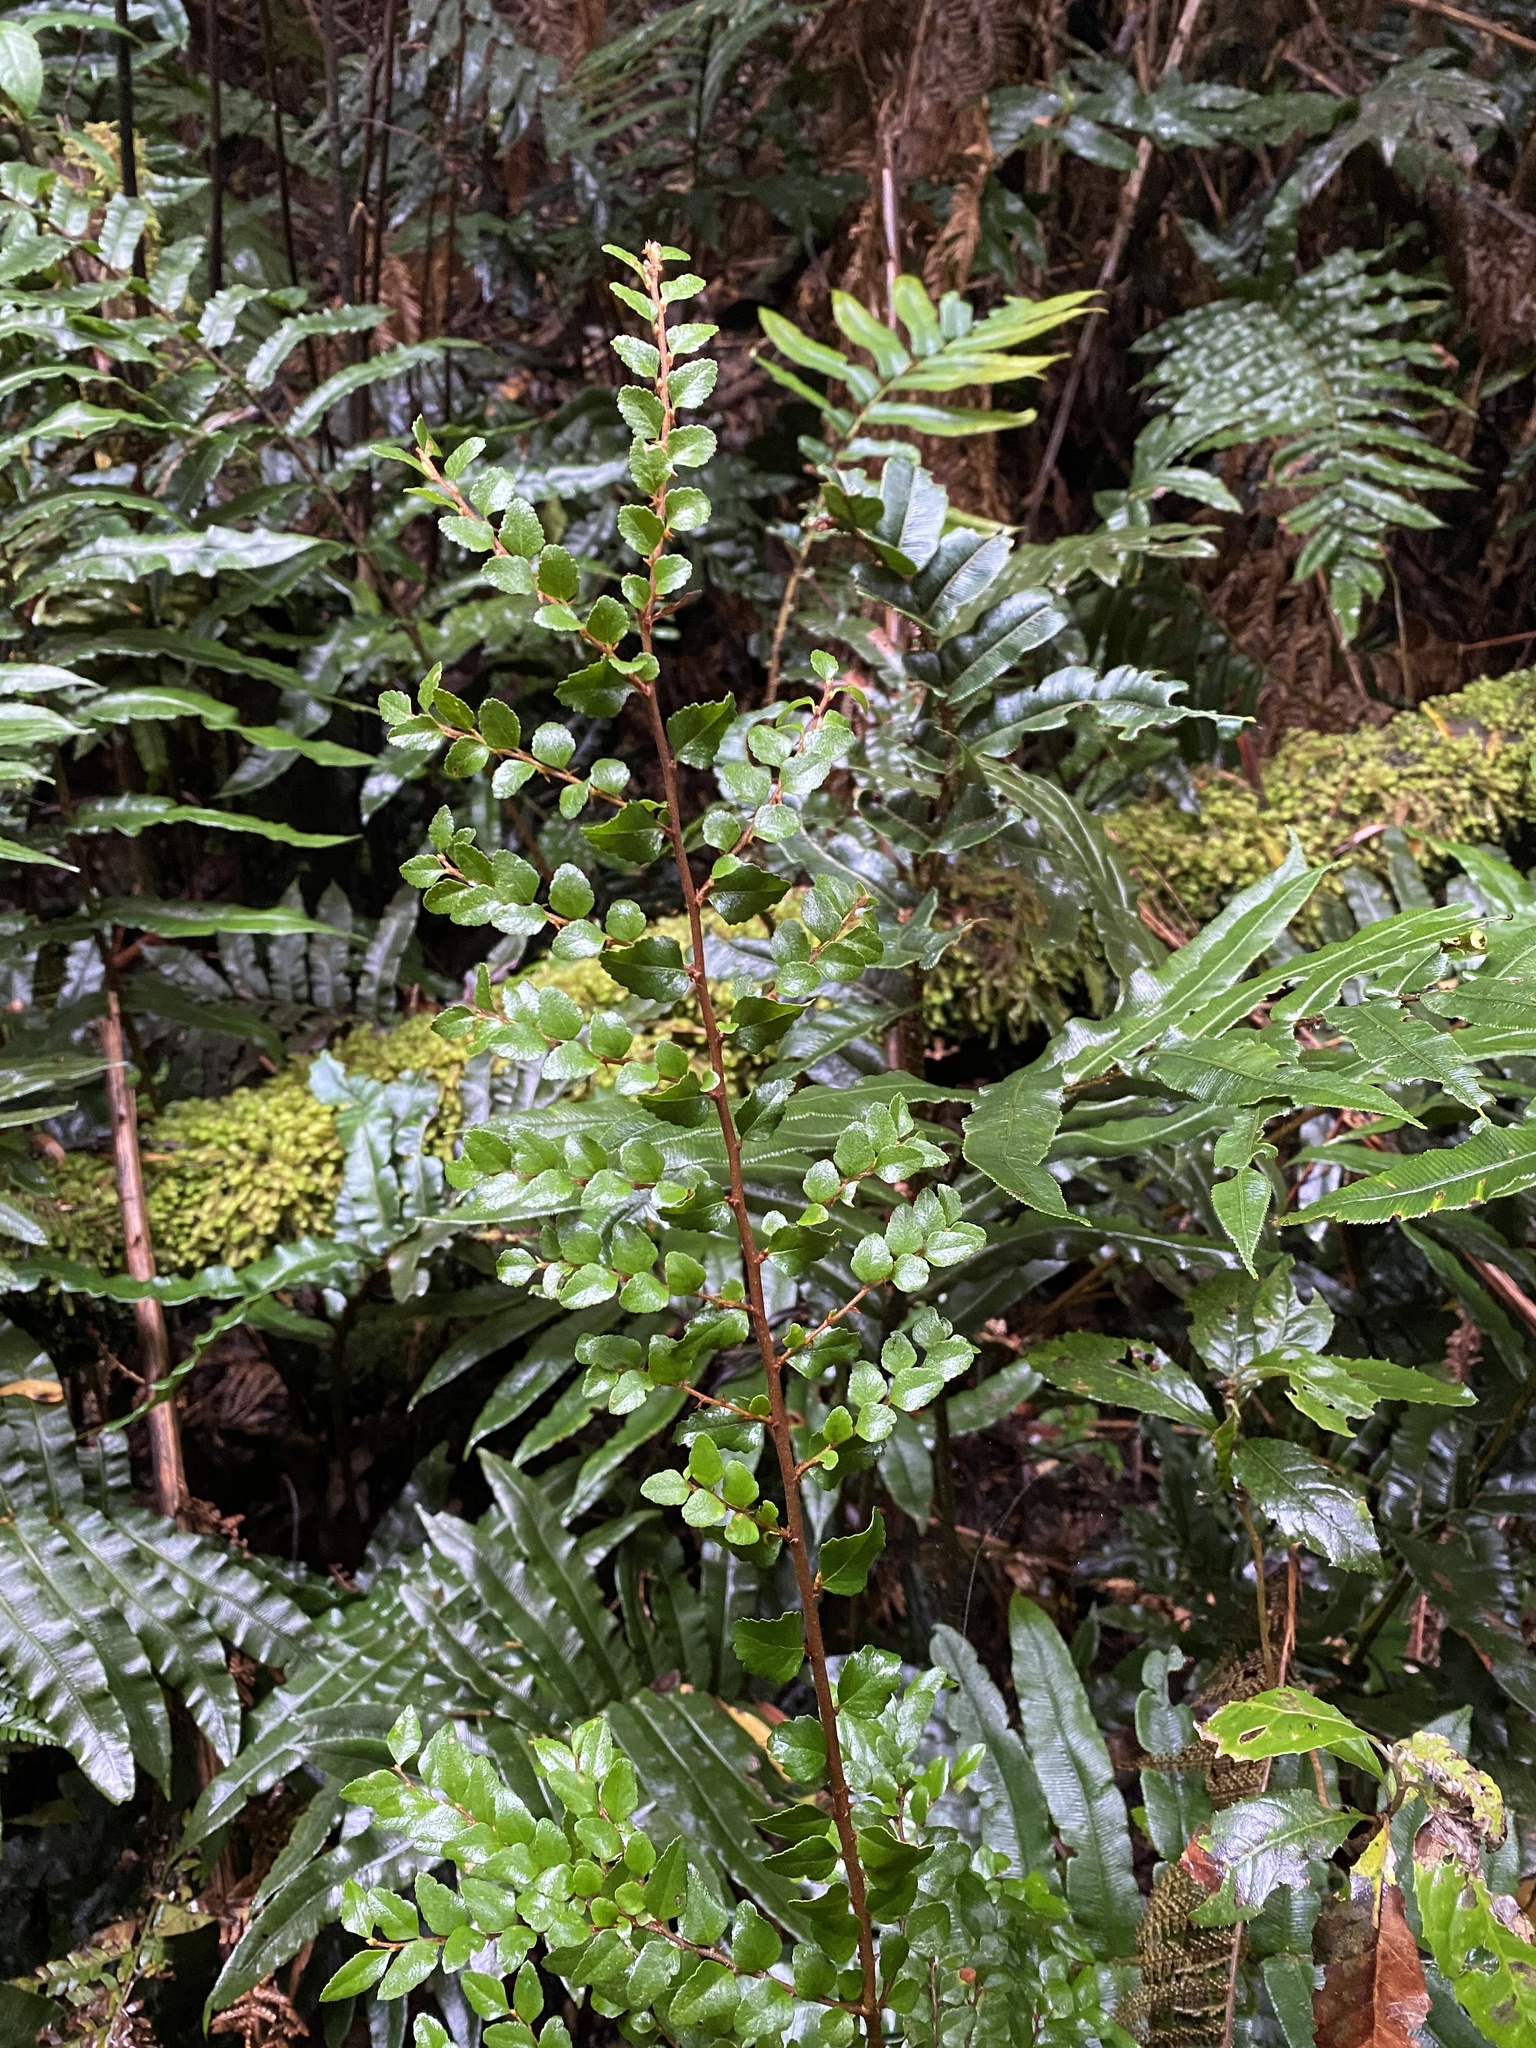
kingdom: Plantae
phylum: Tracheophyta
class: Magnoliopsida
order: Fagales
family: Nothofagaceae
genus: Nothofagus
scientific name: Nothofagus cunninghamii
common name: Myrtle beech
